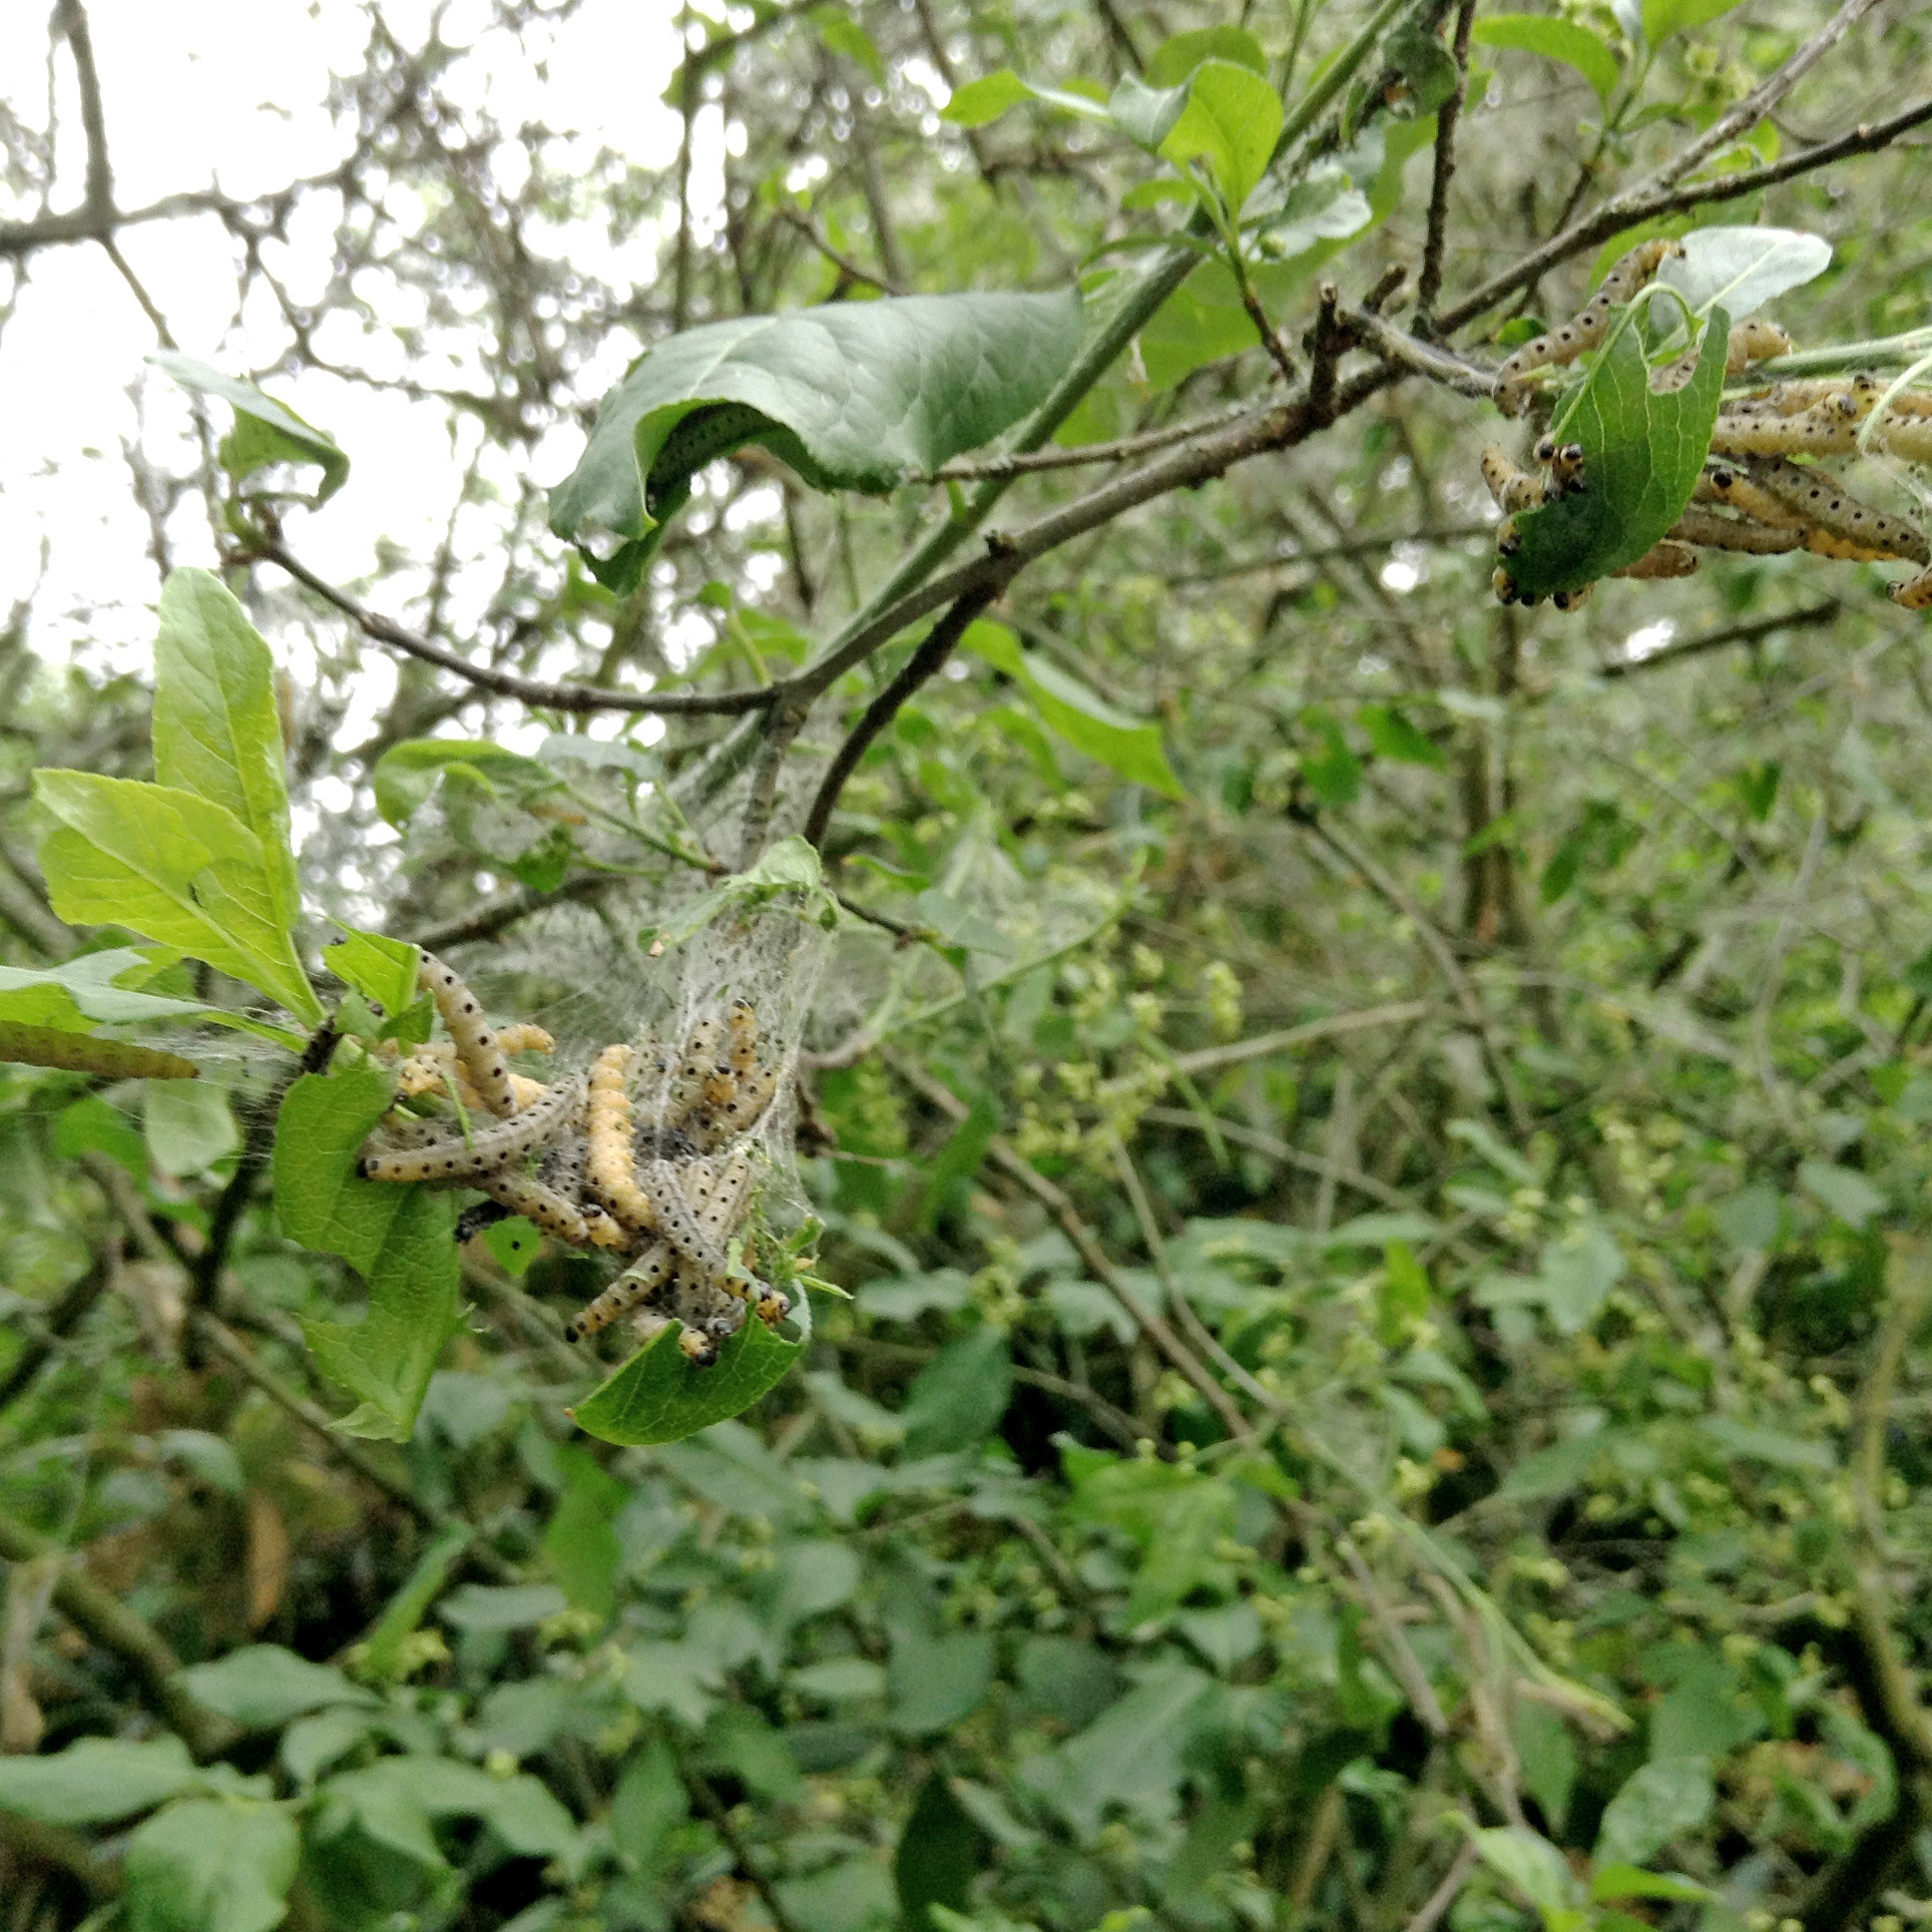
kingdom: Animalia
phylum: Arthropoda
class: Insecta
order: Lepidoptera
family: Yponomeutidae
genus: Yponomeuta
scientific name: Yponomeuta cagnagellus
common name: Spindle ermine
